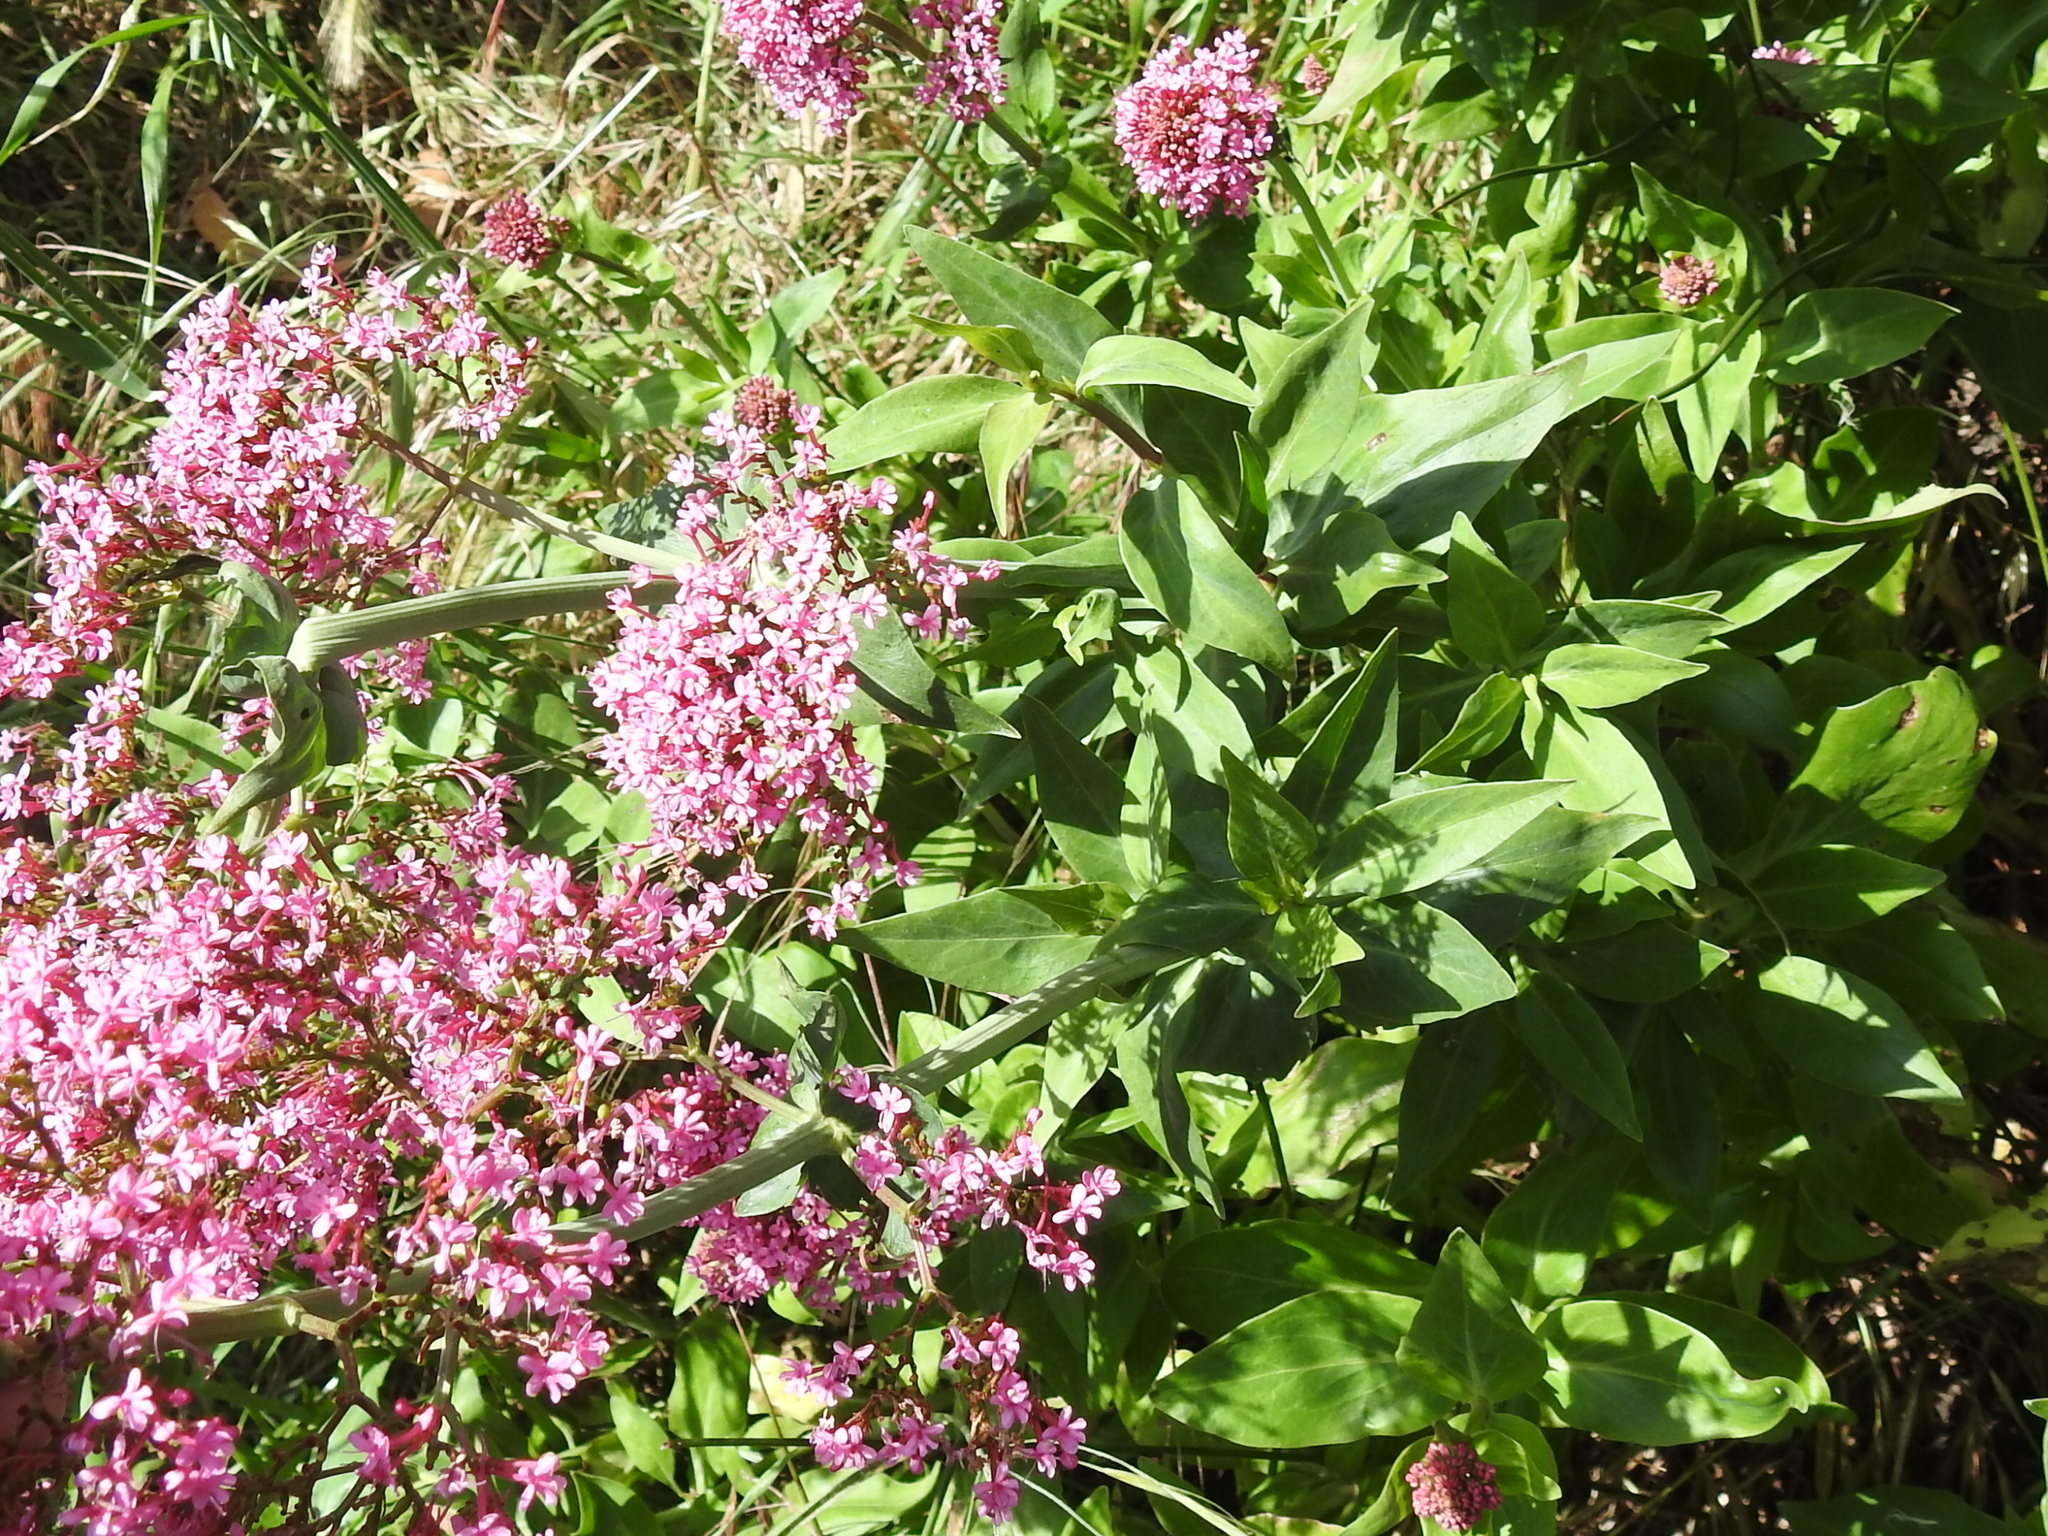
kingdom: Plantae
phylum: Tracheophyta
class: Magnoliopsida
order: Dipsacales
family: Caprifoliaceae
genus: Centranthus
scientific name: Centranthus ruber
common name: Red valerian
